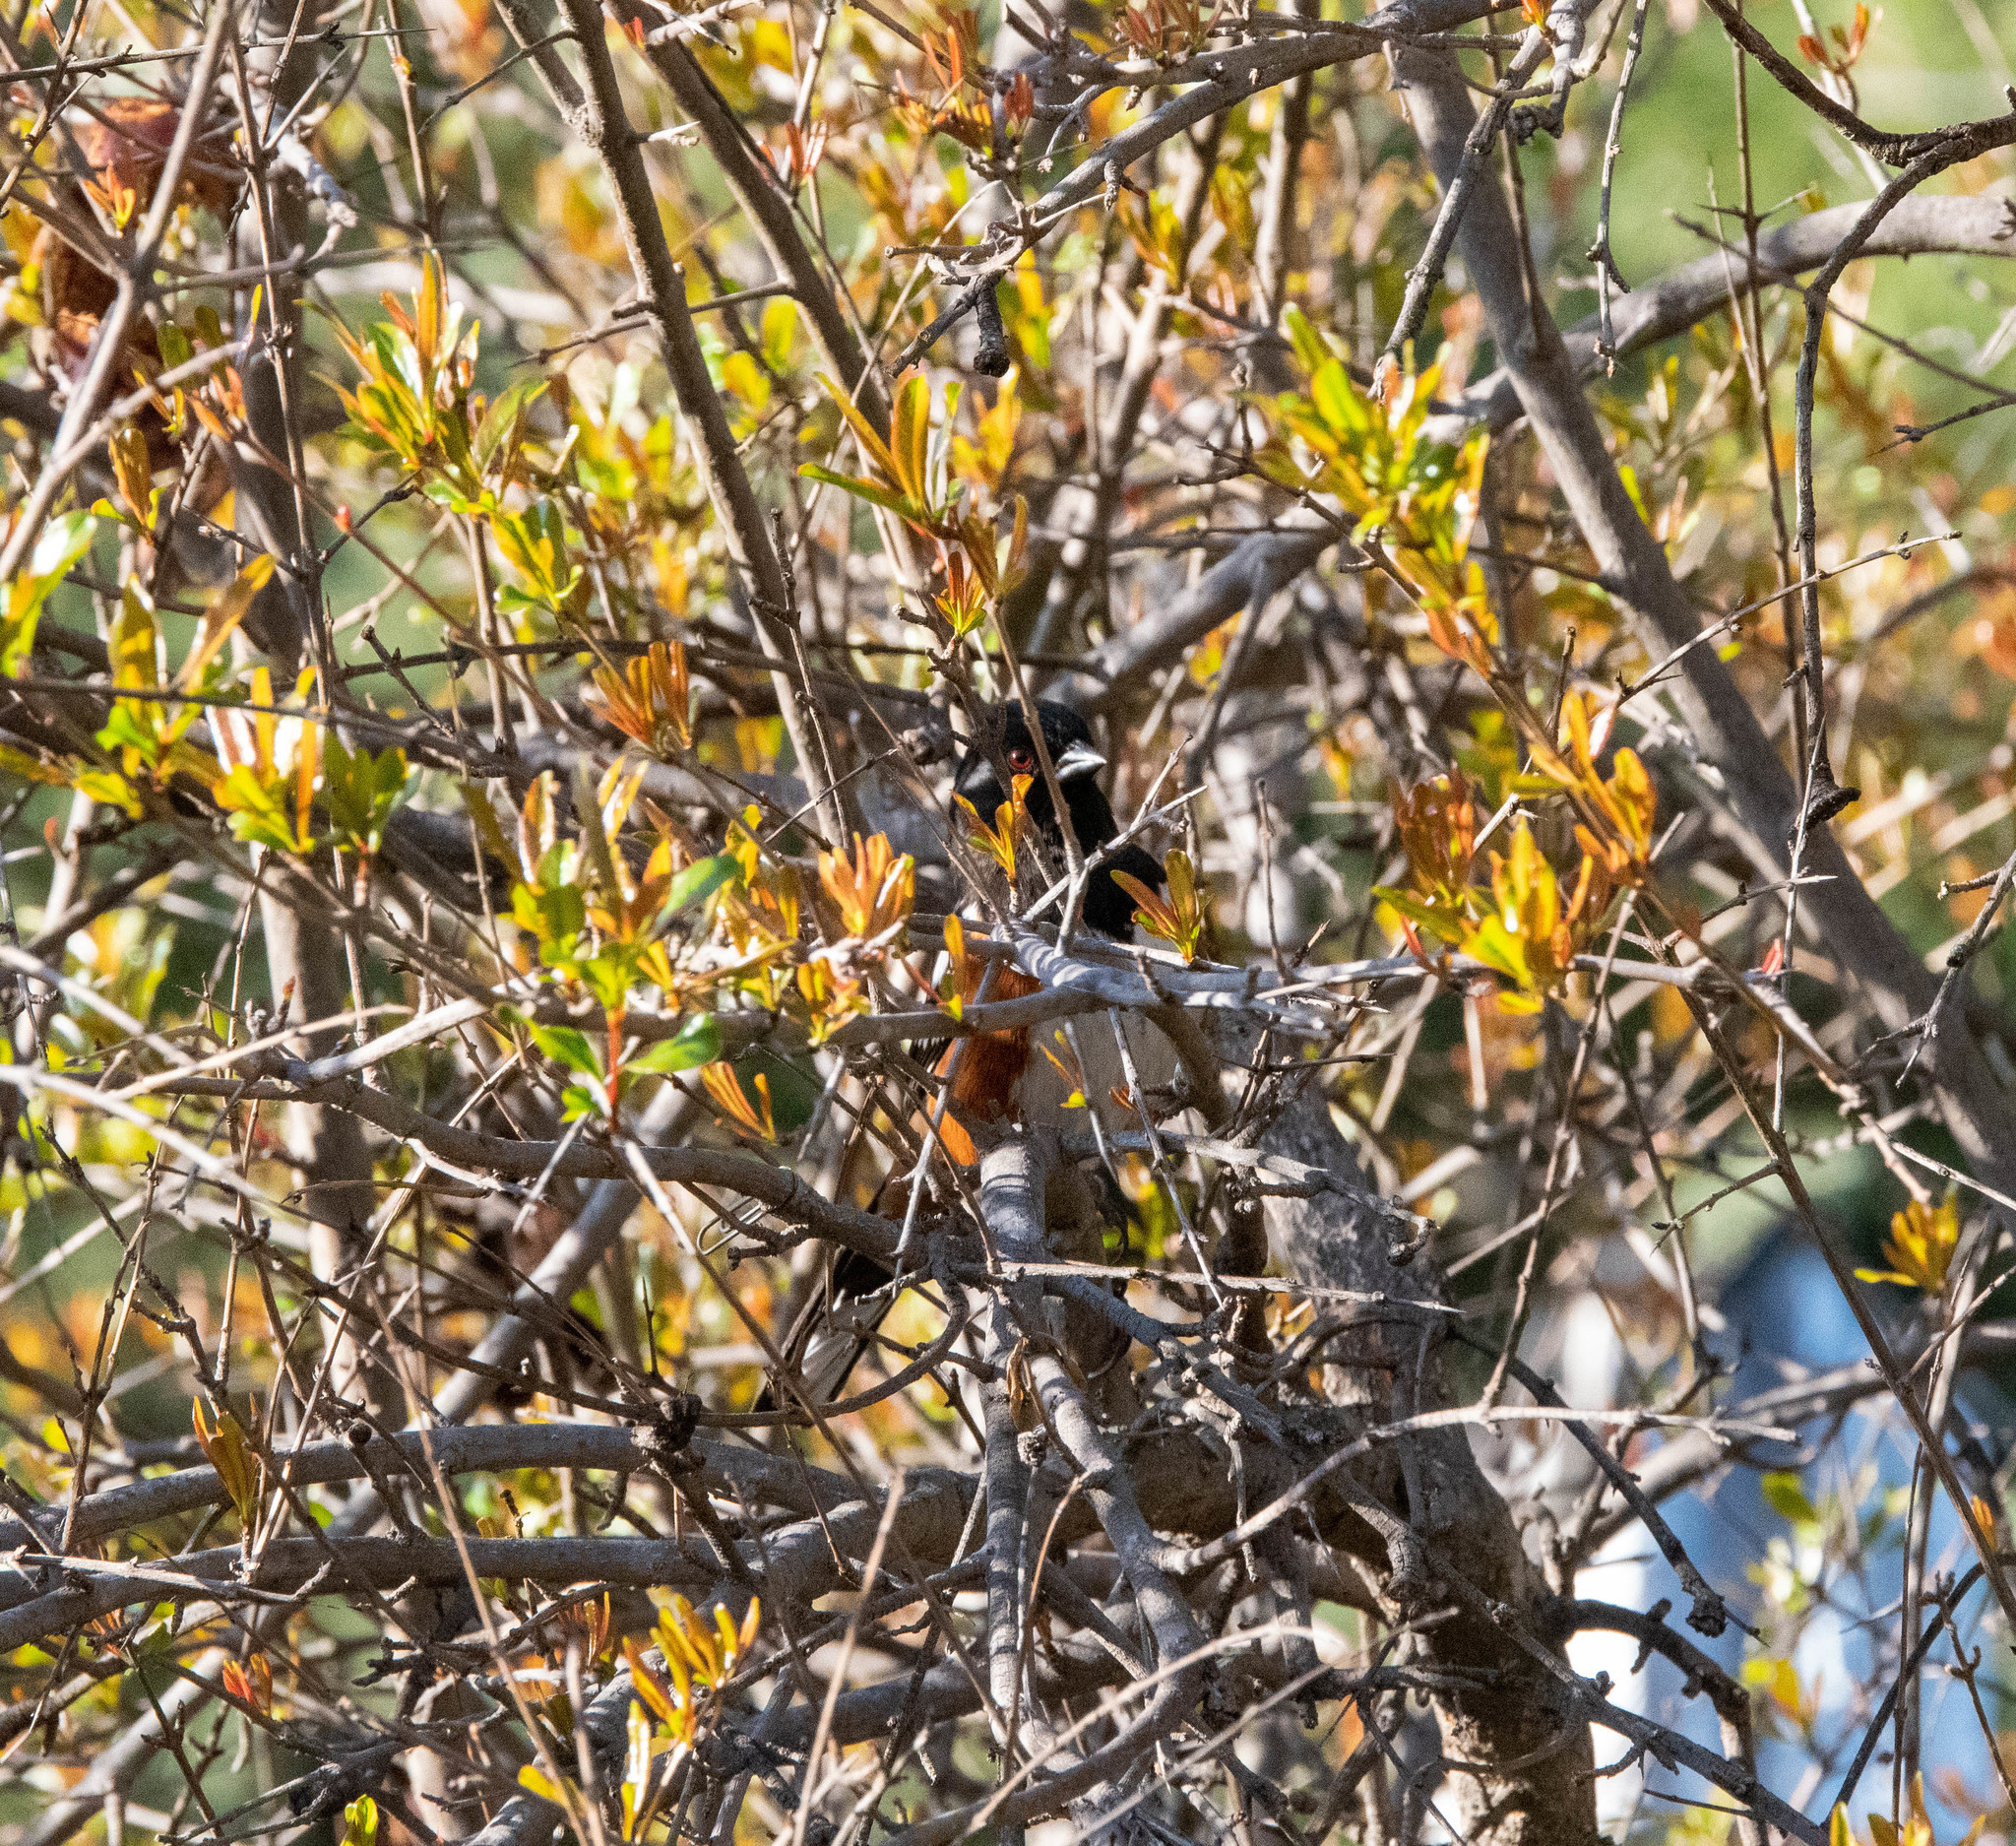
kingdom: Animalia
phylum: Chordata
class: Aves
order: Passeriformes
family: Passerellidae
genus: Pipilo
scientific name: Pipilo maculatus
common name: Spotted towhee
